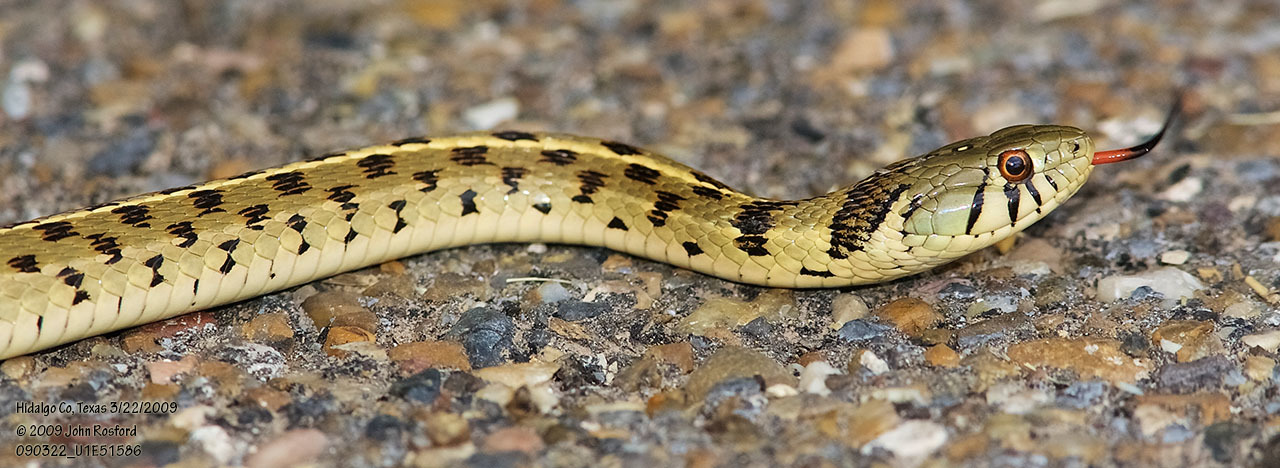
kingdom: Animalia
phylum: Chordata
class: Squamata
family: Colubridae
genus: Thamnophis
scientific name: Thamnophis marcianus
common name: Checkered garter snake
